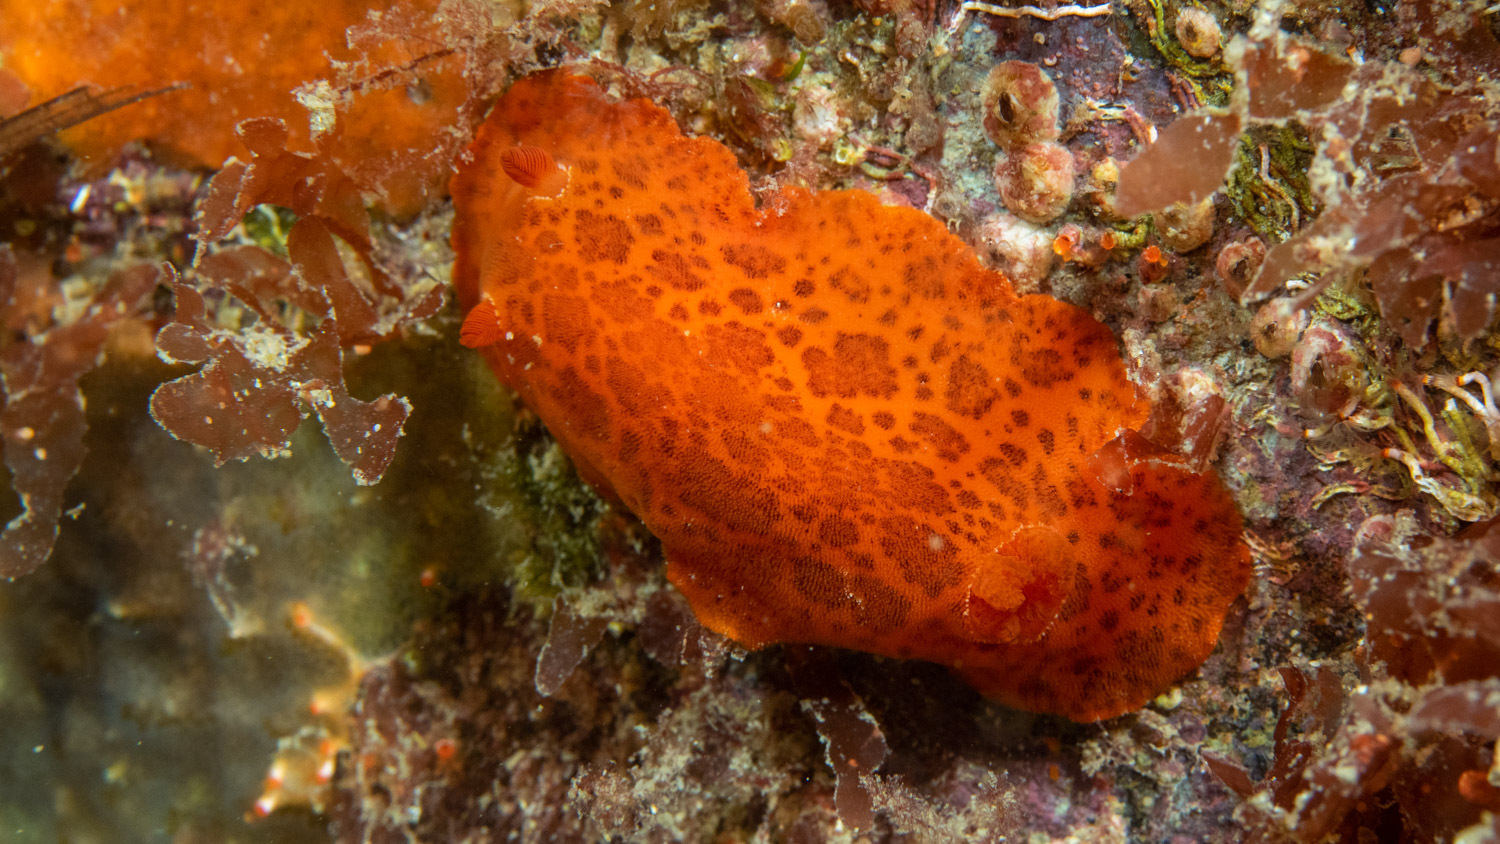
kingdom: Animalia
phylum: Mollusca
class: Gastropoda
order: Nudibranchia
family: Discodorididae
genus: Discodoris
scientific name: Discodoris paroa
